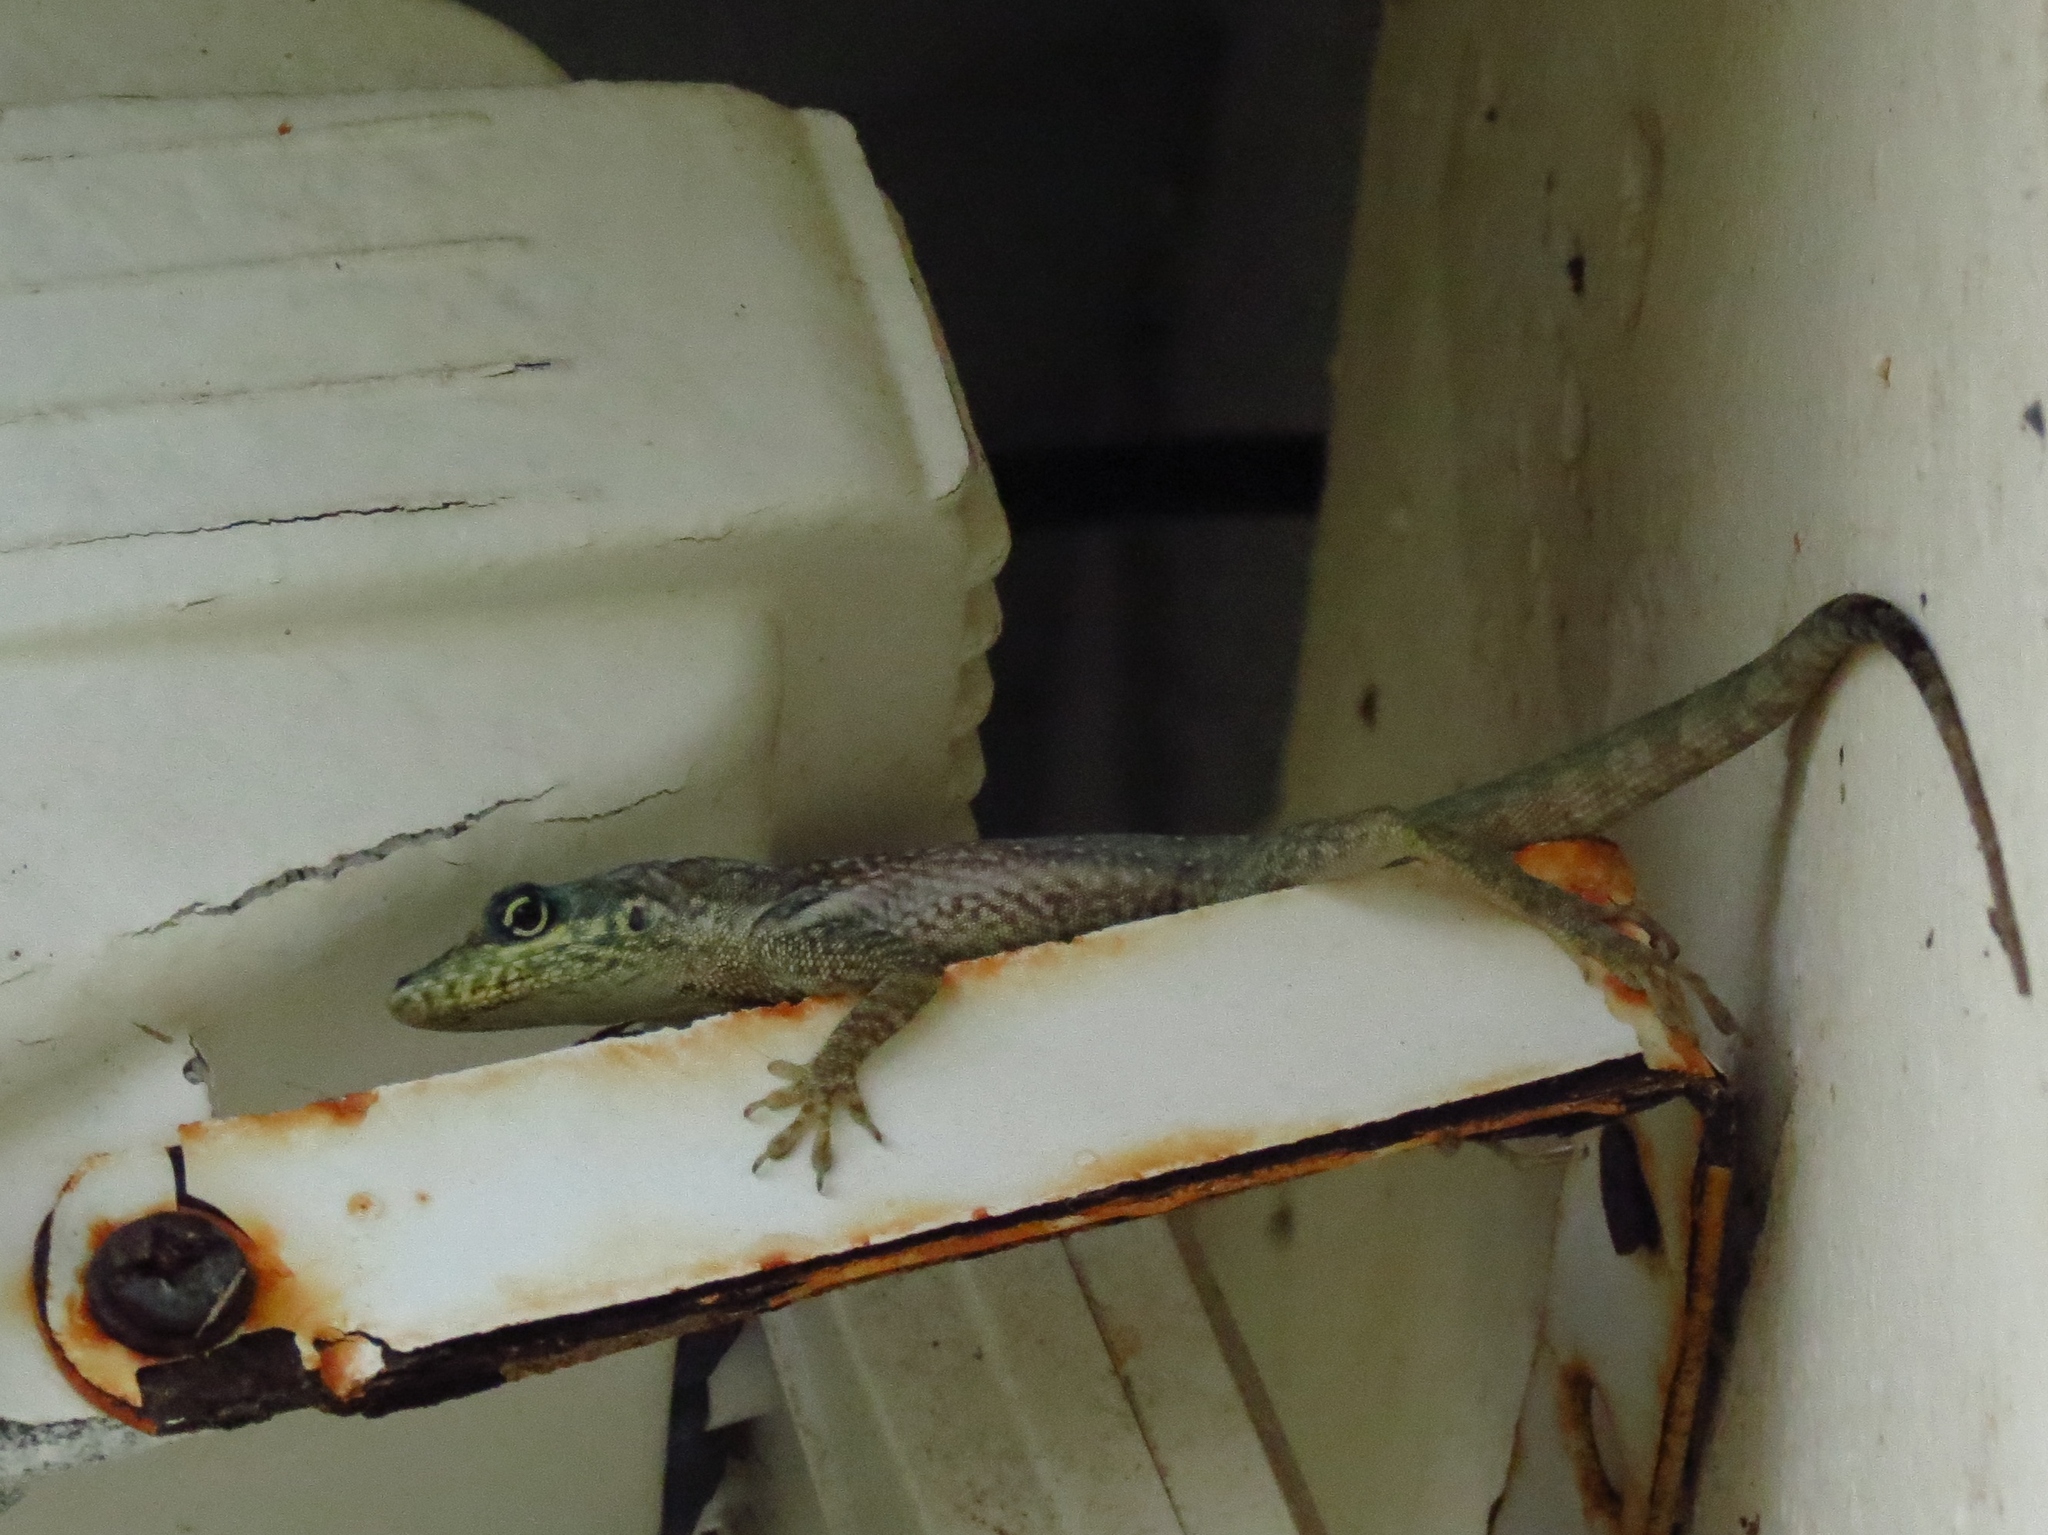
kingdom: Animalia
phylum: Chordata
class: Squamata
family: Dactyloidae
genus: Anolis
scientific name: Anolis roquet
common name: Martinique anole
